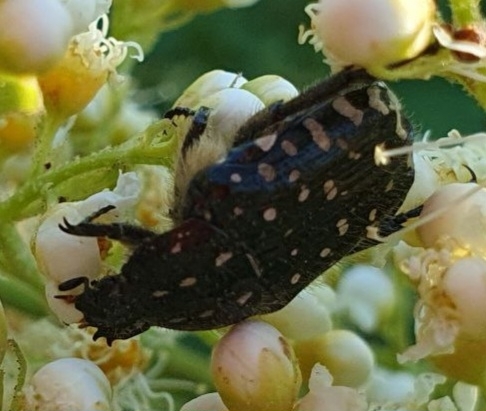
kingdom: Animalia
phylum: Arthropoda
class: Insecta
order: Coleoptera
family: Scarabaeidae
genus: Oxythyrea
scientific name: Oxythyrea funesta
